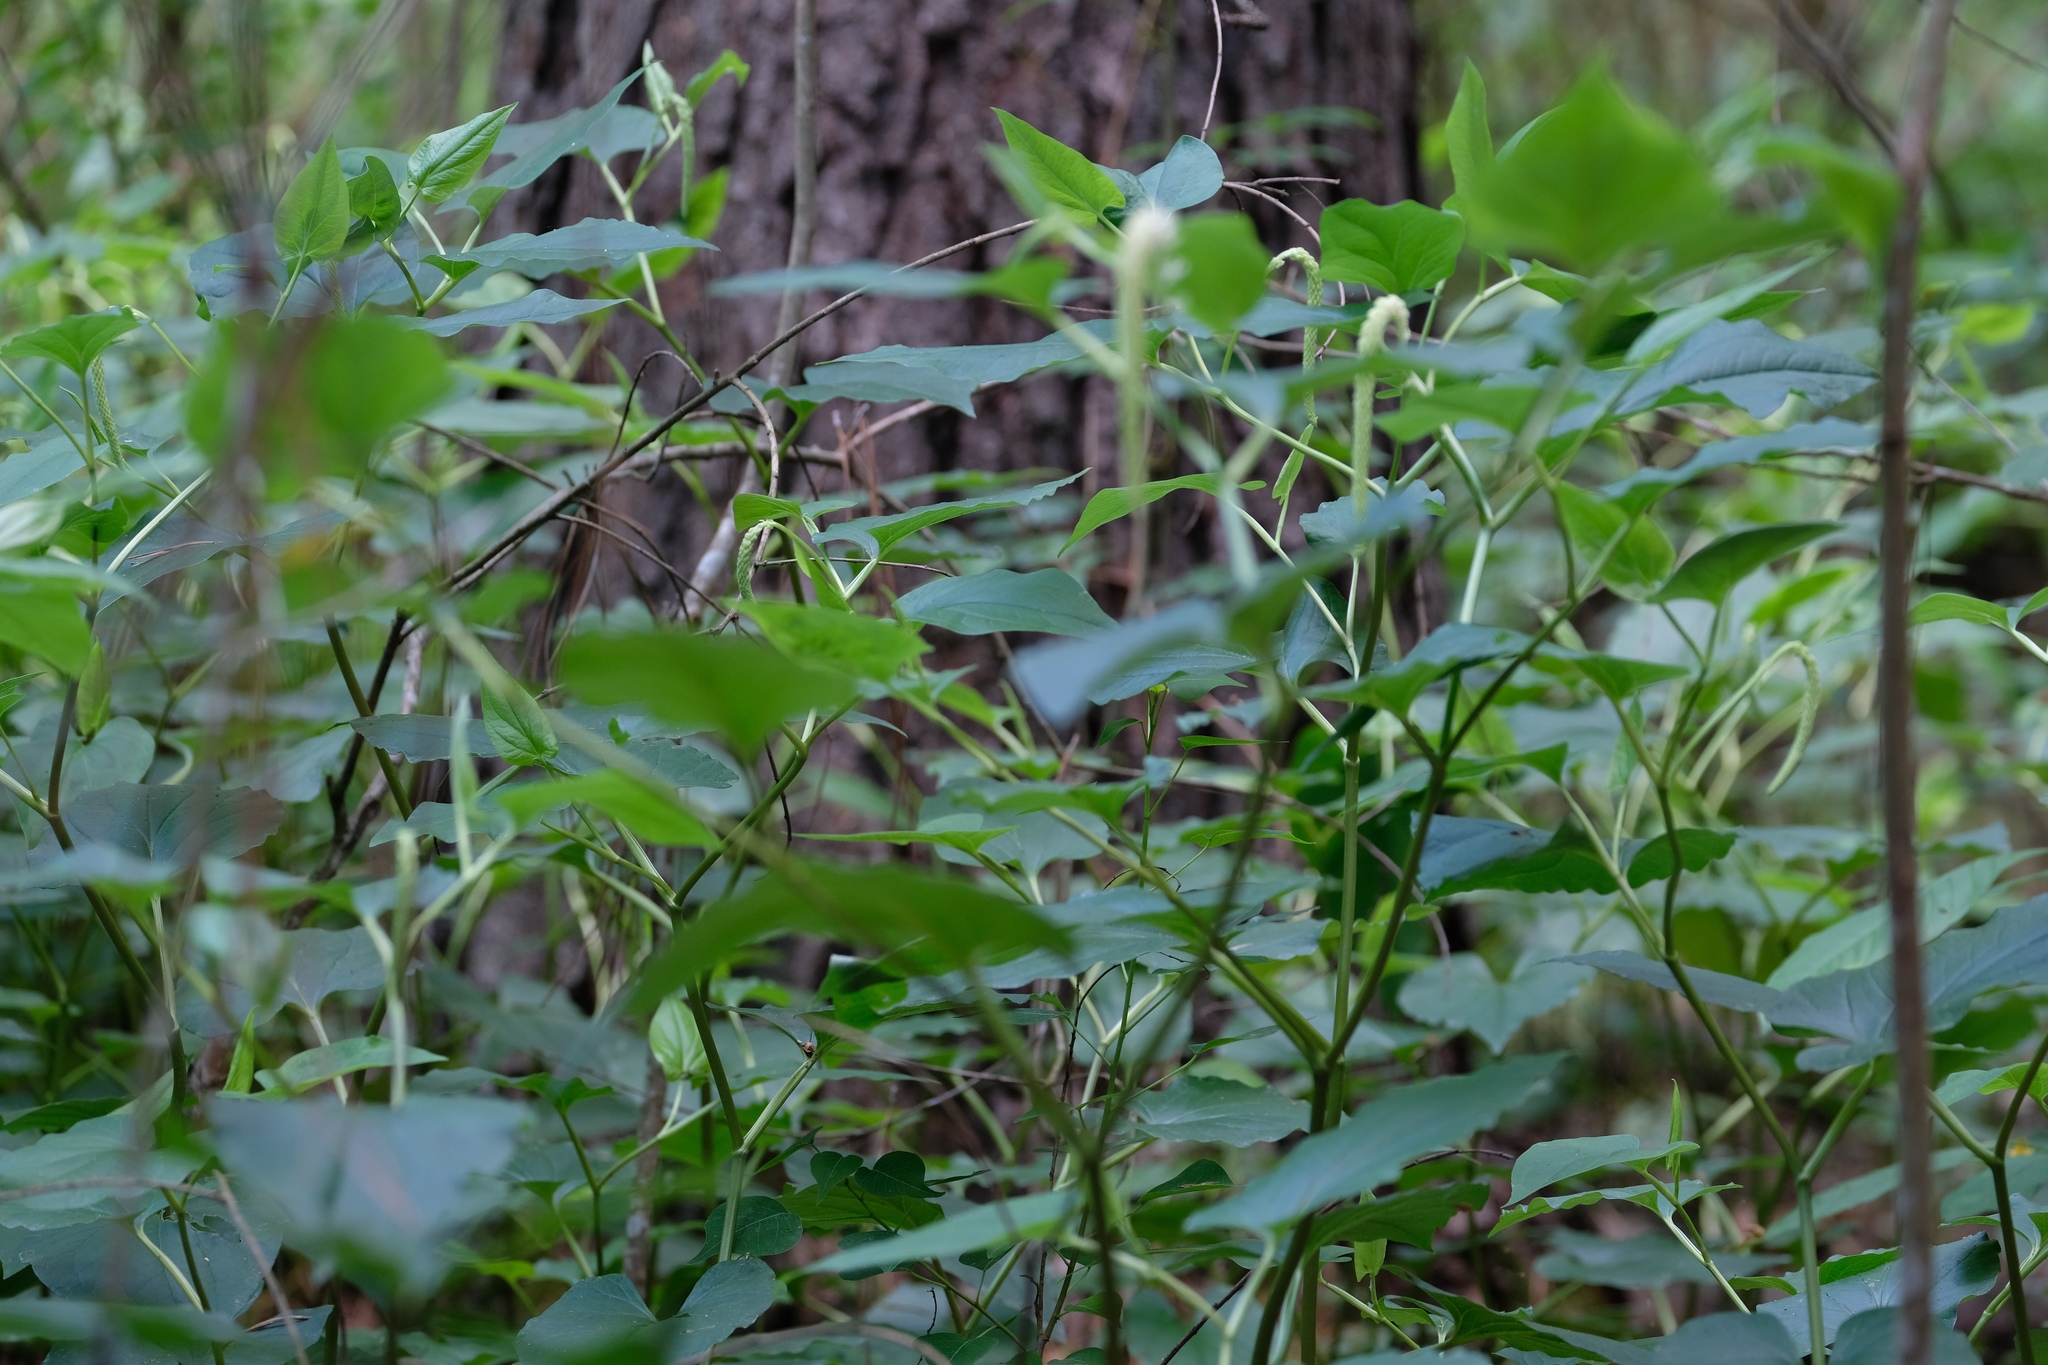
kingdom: Plantae
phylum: Tracheophyta
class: Magnoliopsida
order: Piperales
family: Saururaceae
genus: Saururus
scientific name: Saururus cernuus
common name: Lizard's-tail
